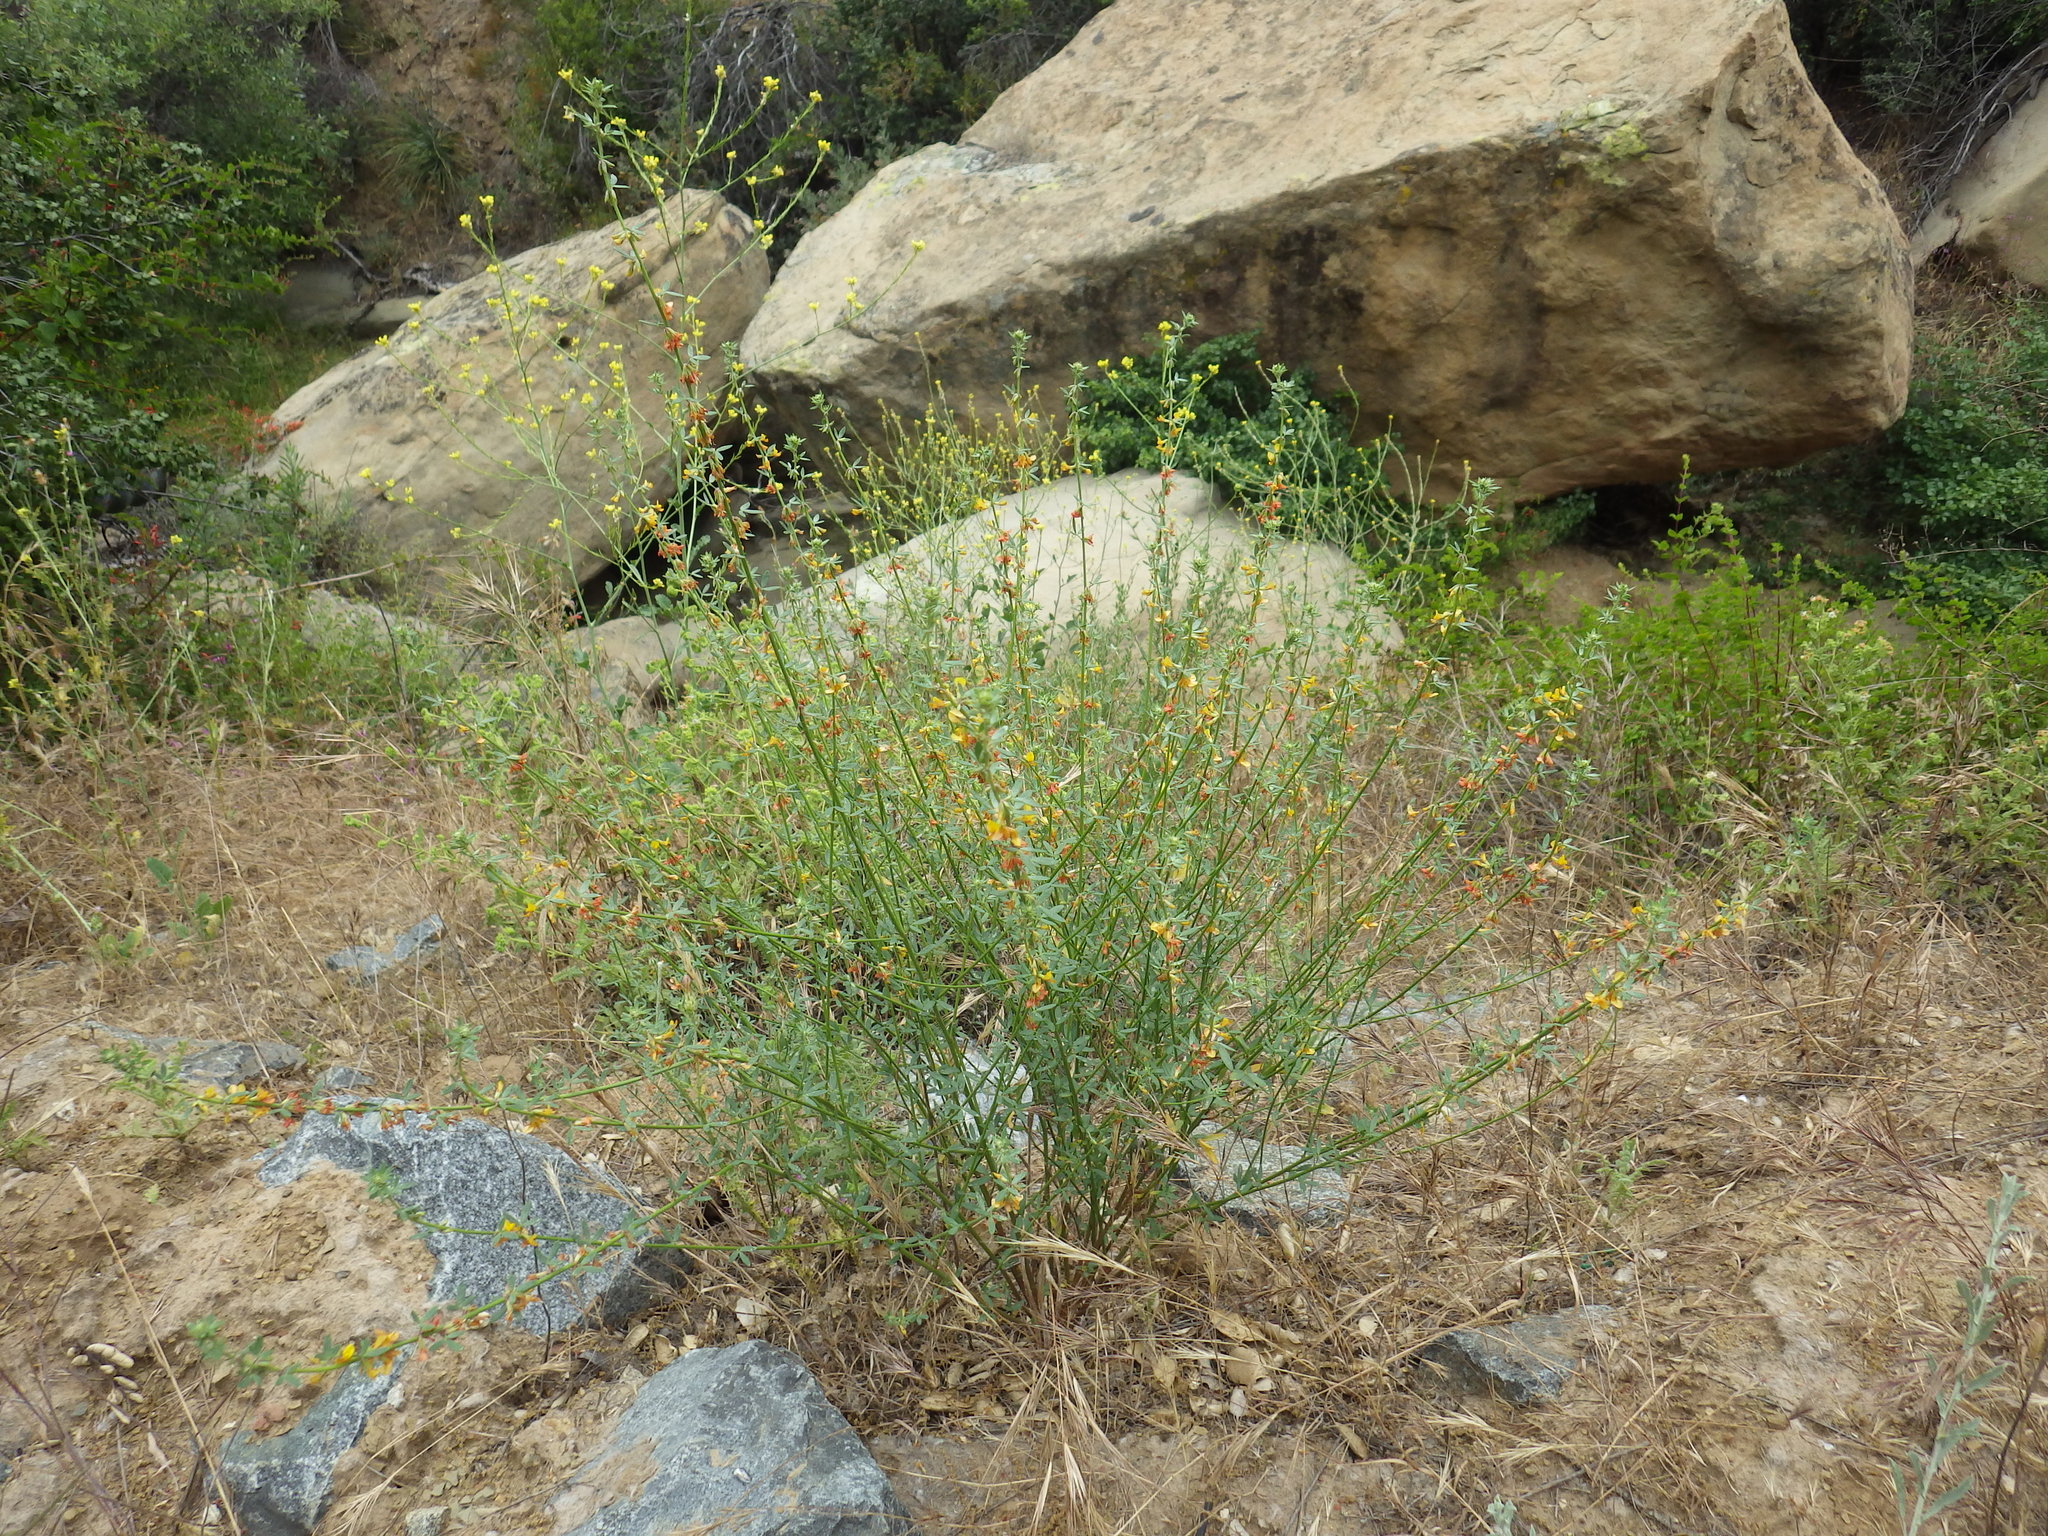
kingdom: Plantae
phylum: Tracheophyta
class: Magnoliopsida
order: Fabales
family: Fabaceae
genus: Acmispon
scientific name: Acmispon glaber
